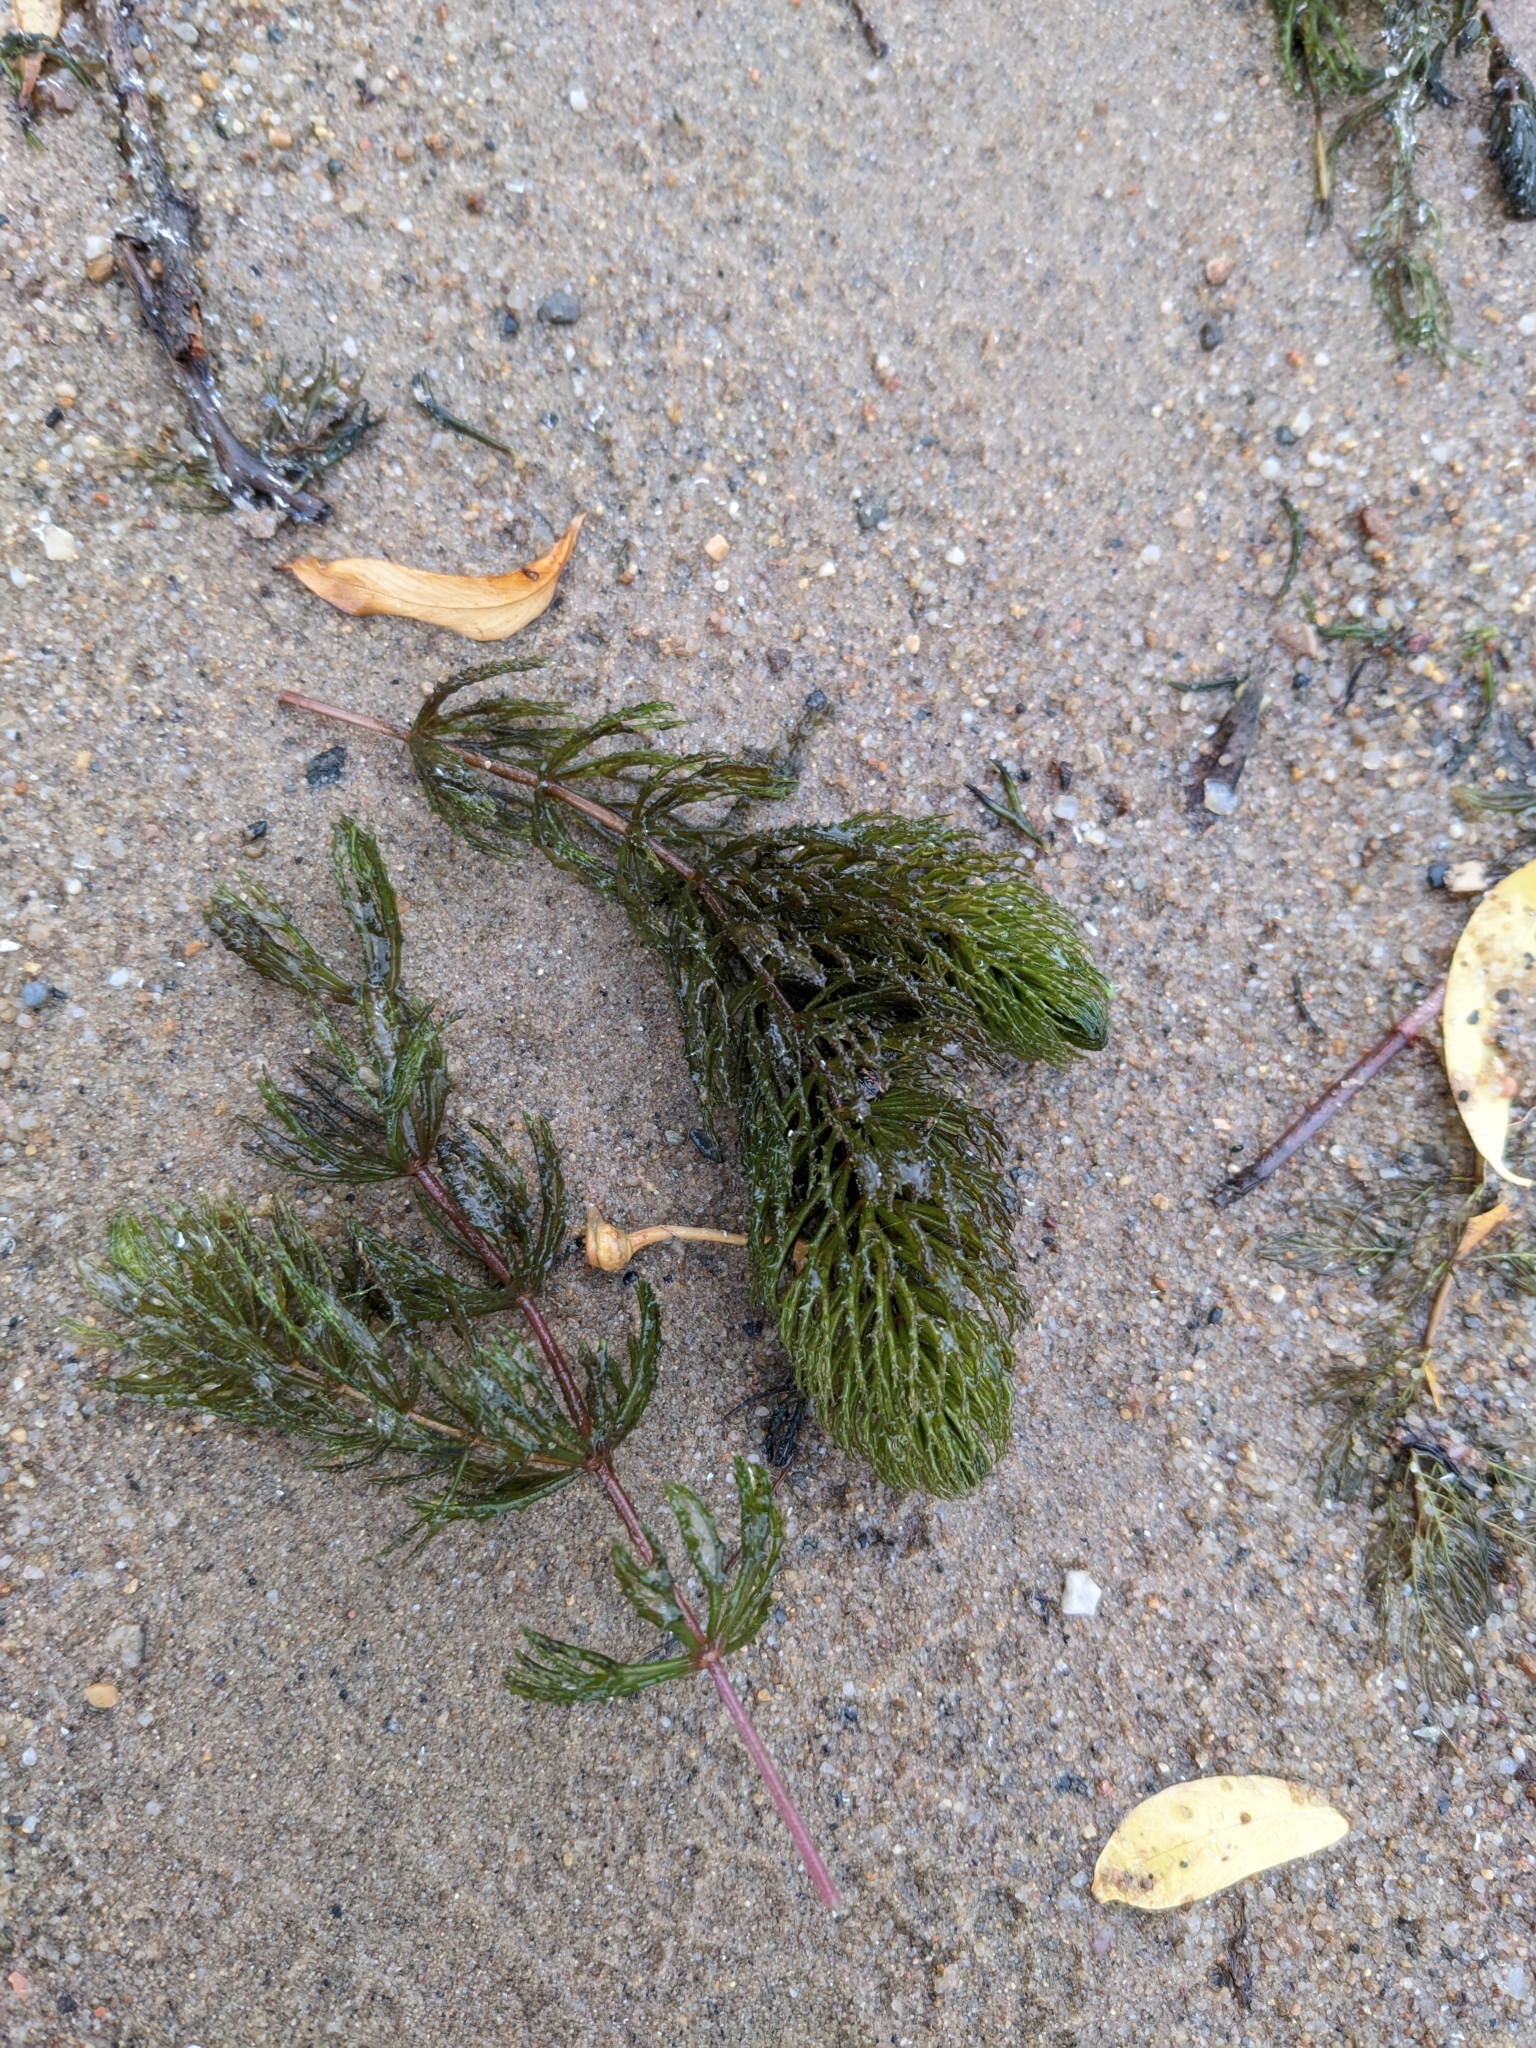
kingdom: Plantae
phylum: Tracheophyta
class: Magnoliopsida
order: Ceratophyllales
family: Ceratophyllaceae
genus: Ceratophyllum
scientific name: Ceratophyllum demersum
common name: Rigid hornwort
